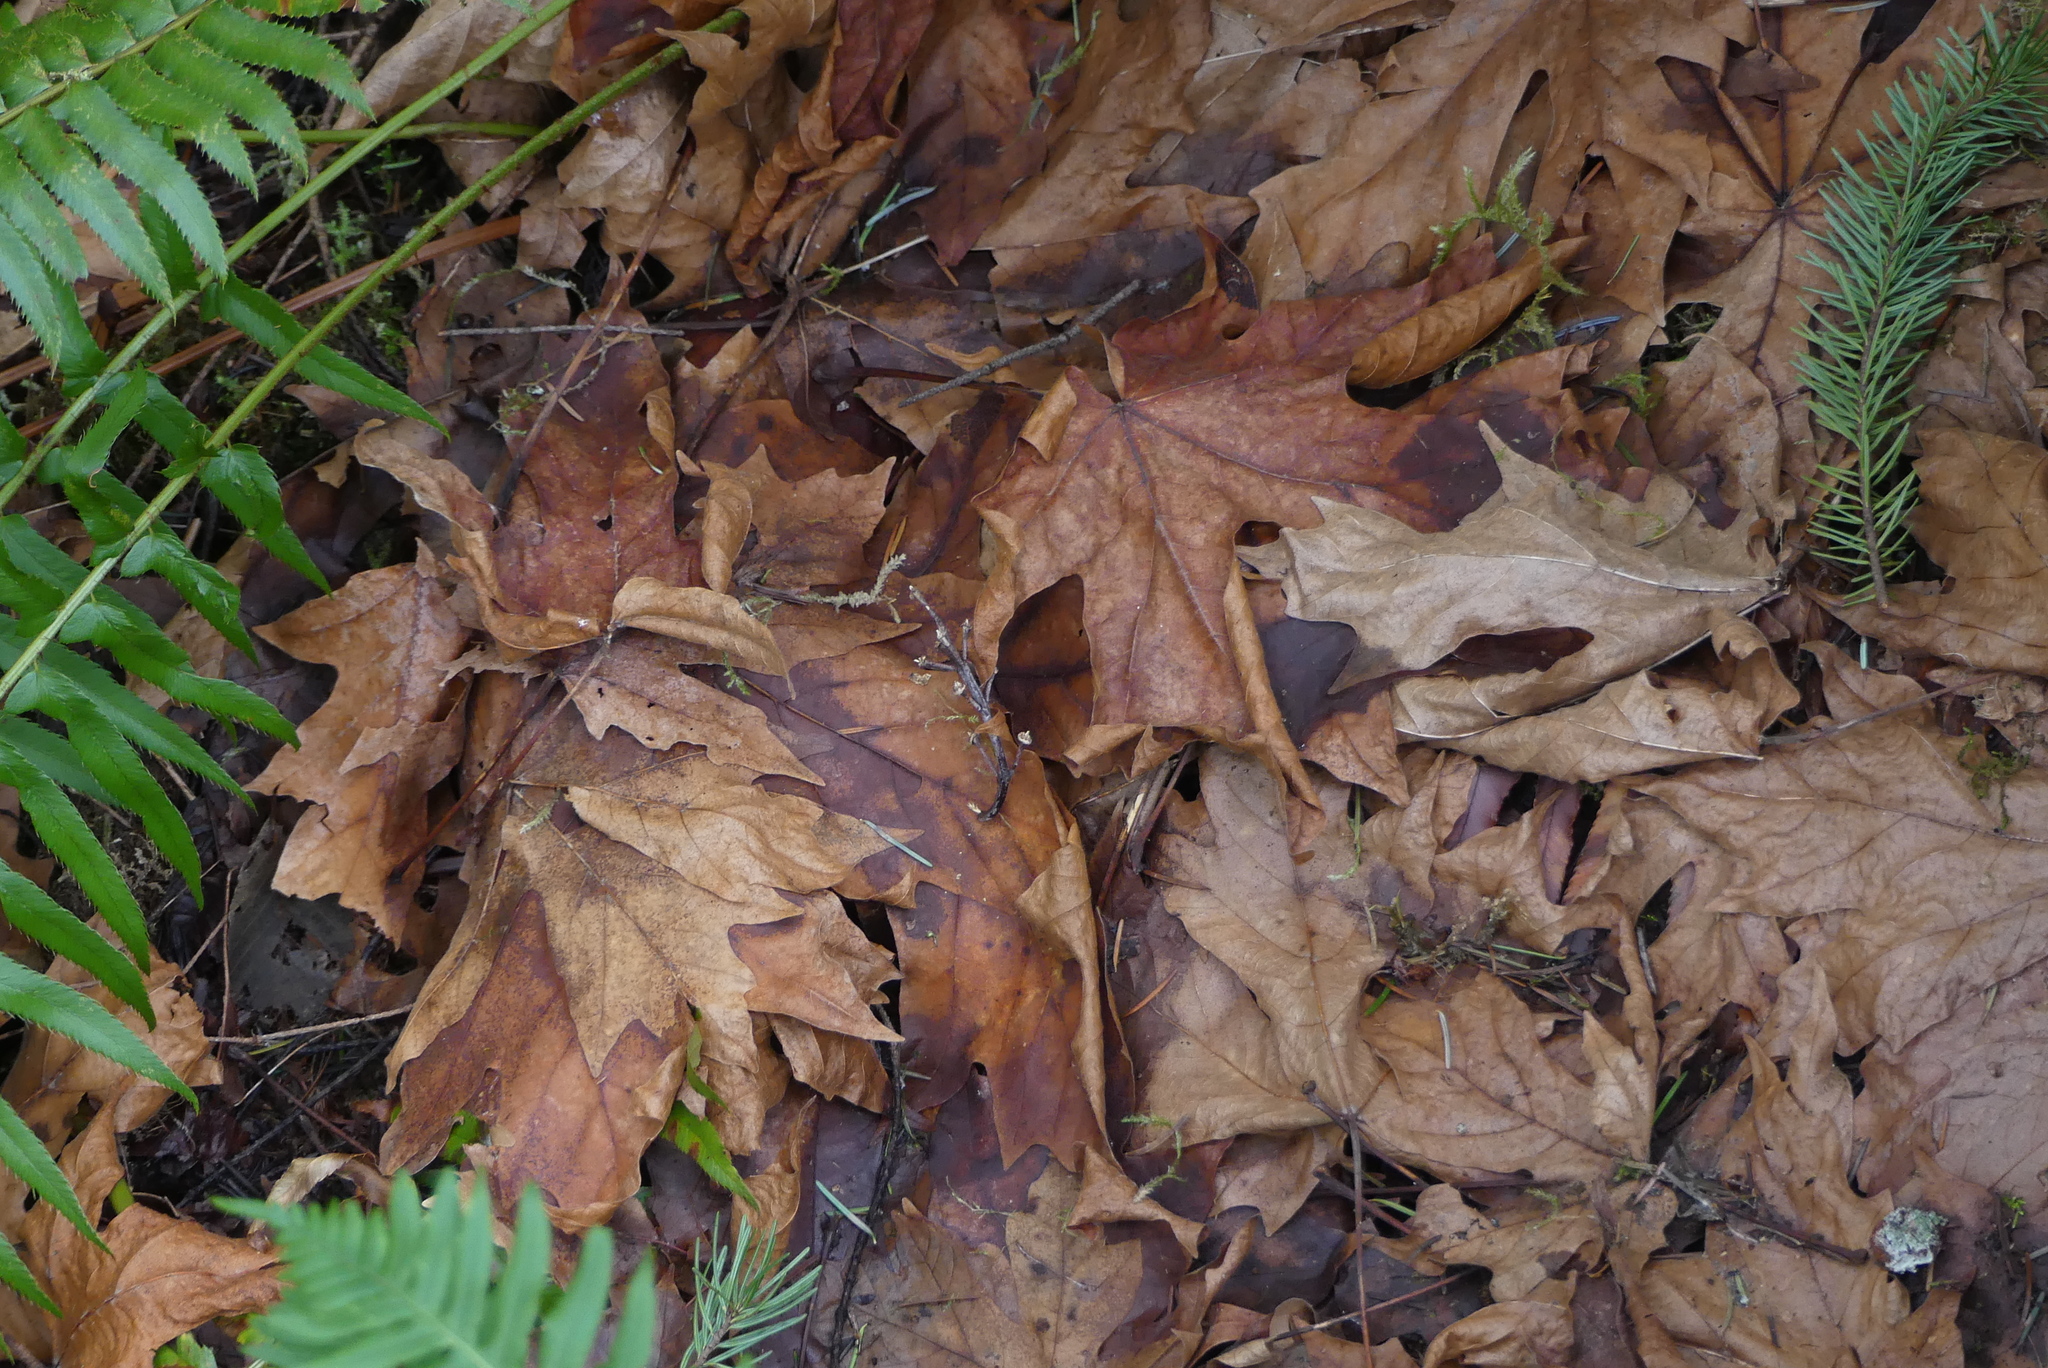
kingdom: Plantae
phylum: Tracheophyta
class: Magnoliopsida
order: Sapindales
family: Sapindaceae
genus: Acer
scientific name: Acer macrophyllum
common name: Oregon maple
